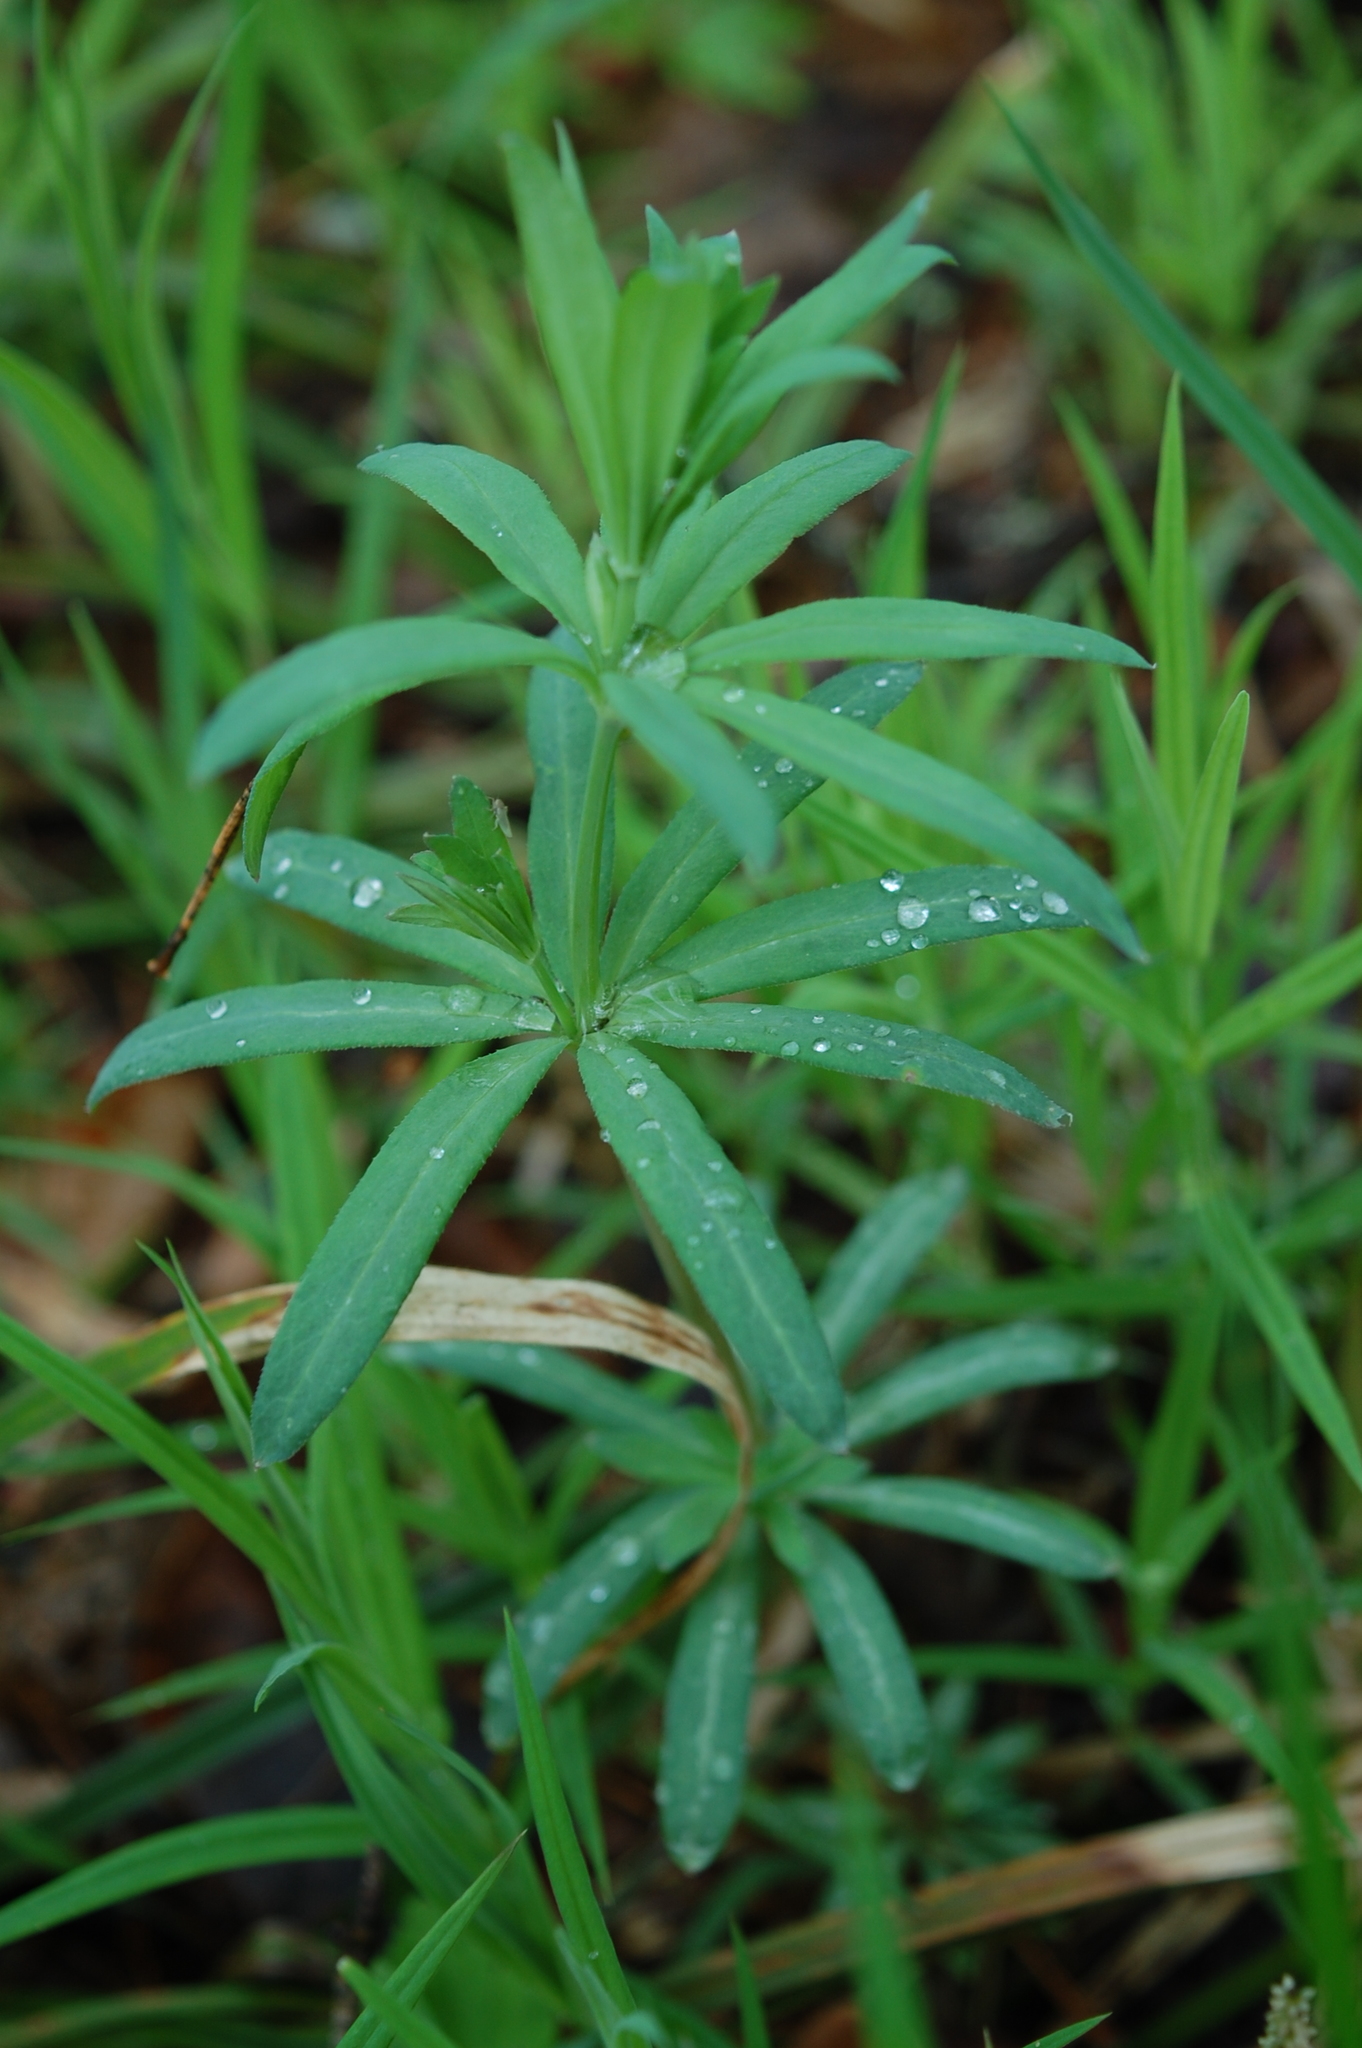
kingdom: Plantae
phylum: Tracheophyta
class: Magnoliopsida
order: Gentianales
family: Rubiaceae
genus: Galium
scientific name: Galium intermedium
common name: Bedstraw
